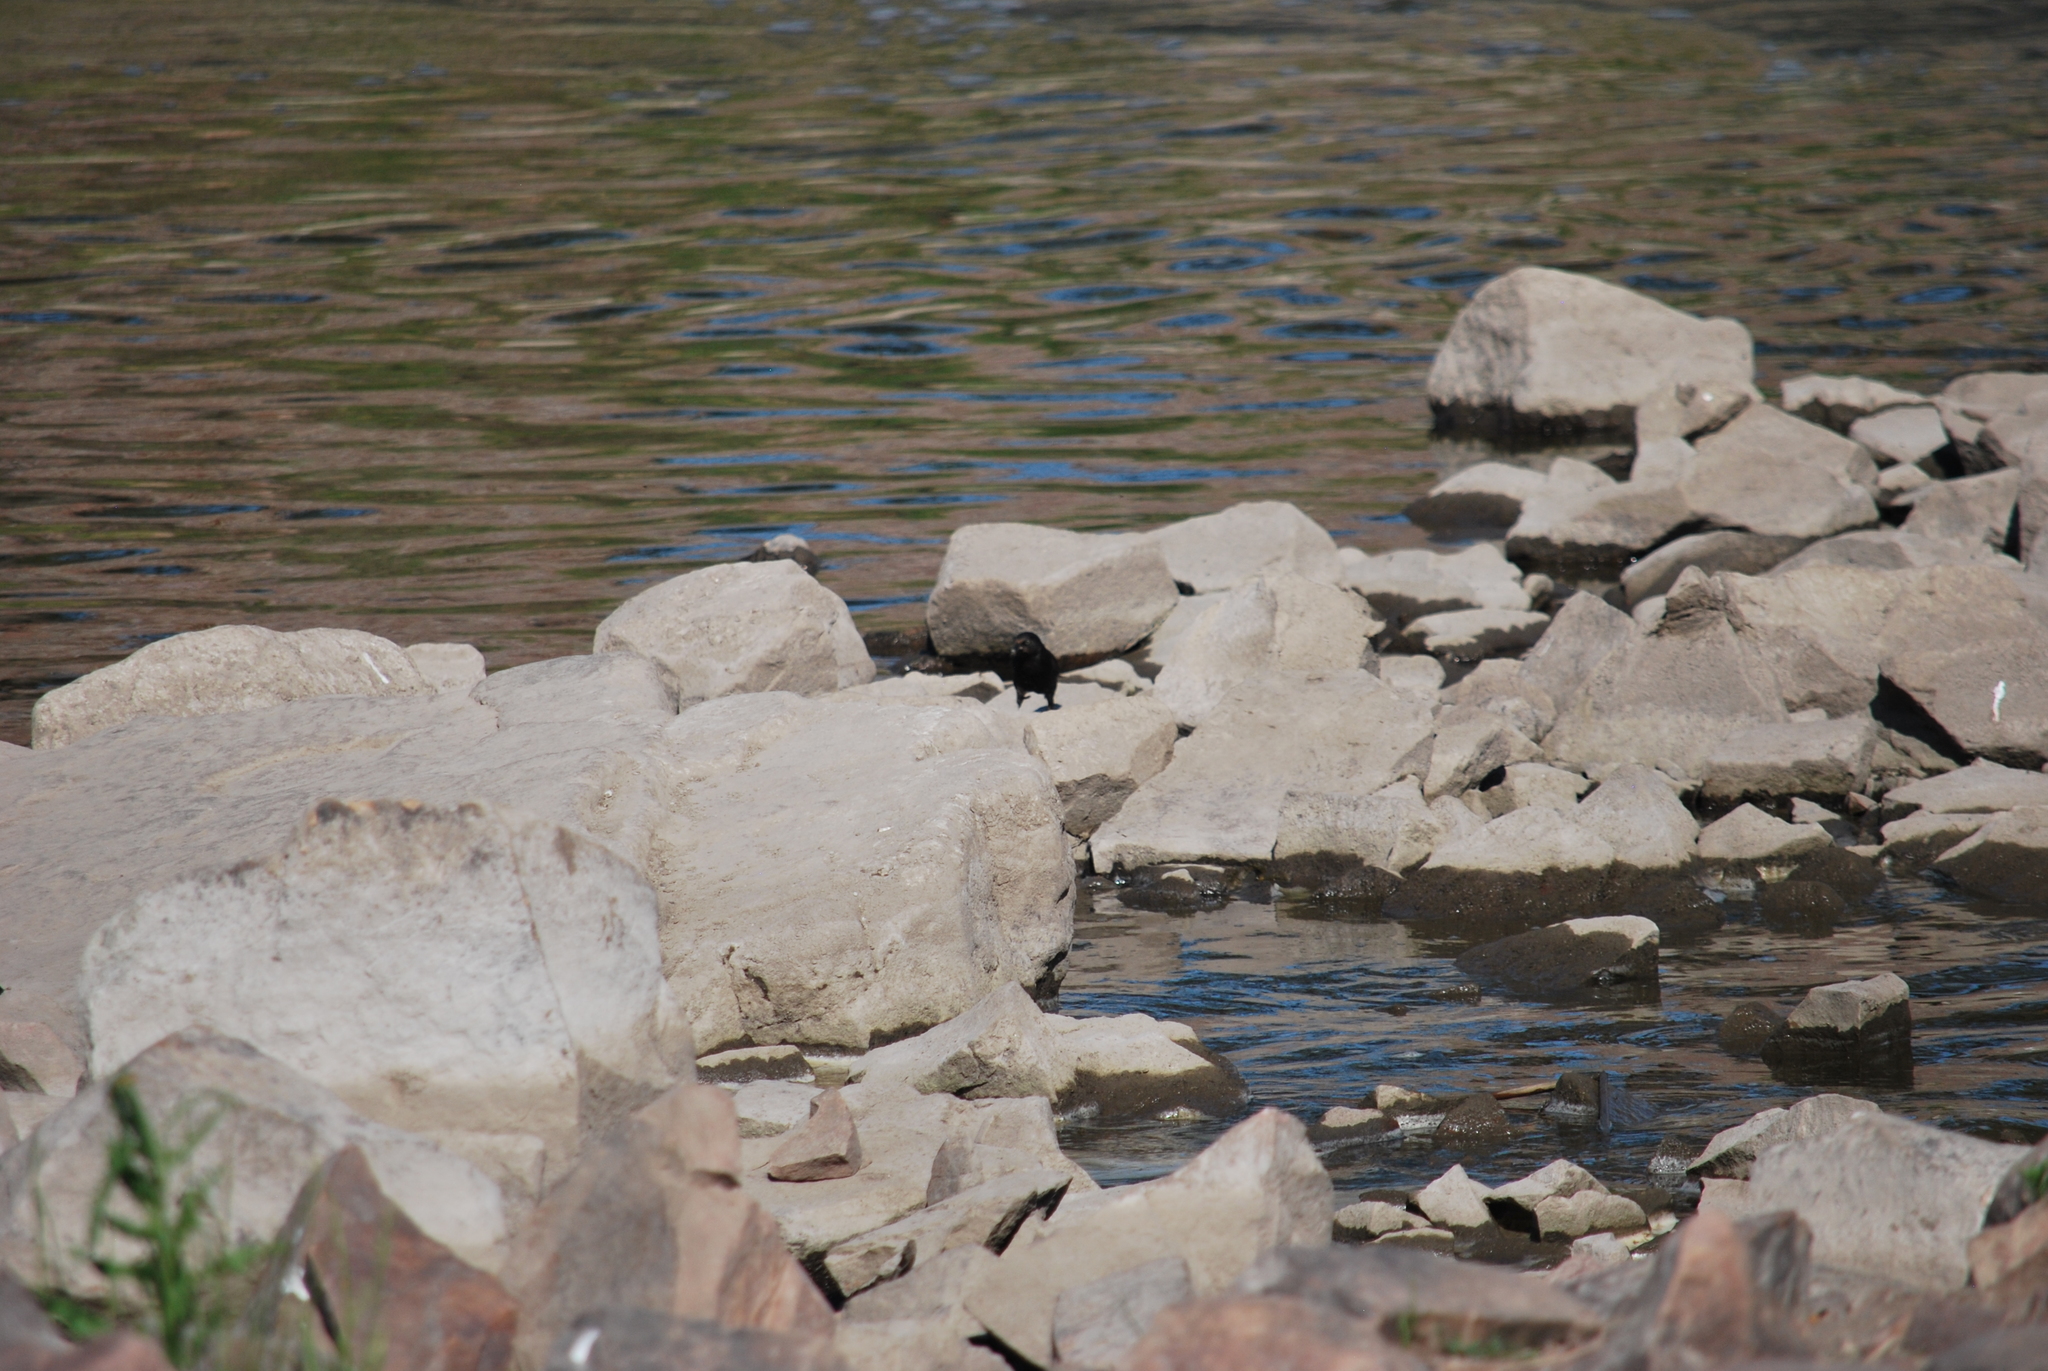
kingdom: Animalia
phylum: Chordata
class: Aves
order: Passeriformes
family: Icteridae
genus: Quiscalus
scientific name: Quiscalus quiscula
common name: Common grackle
